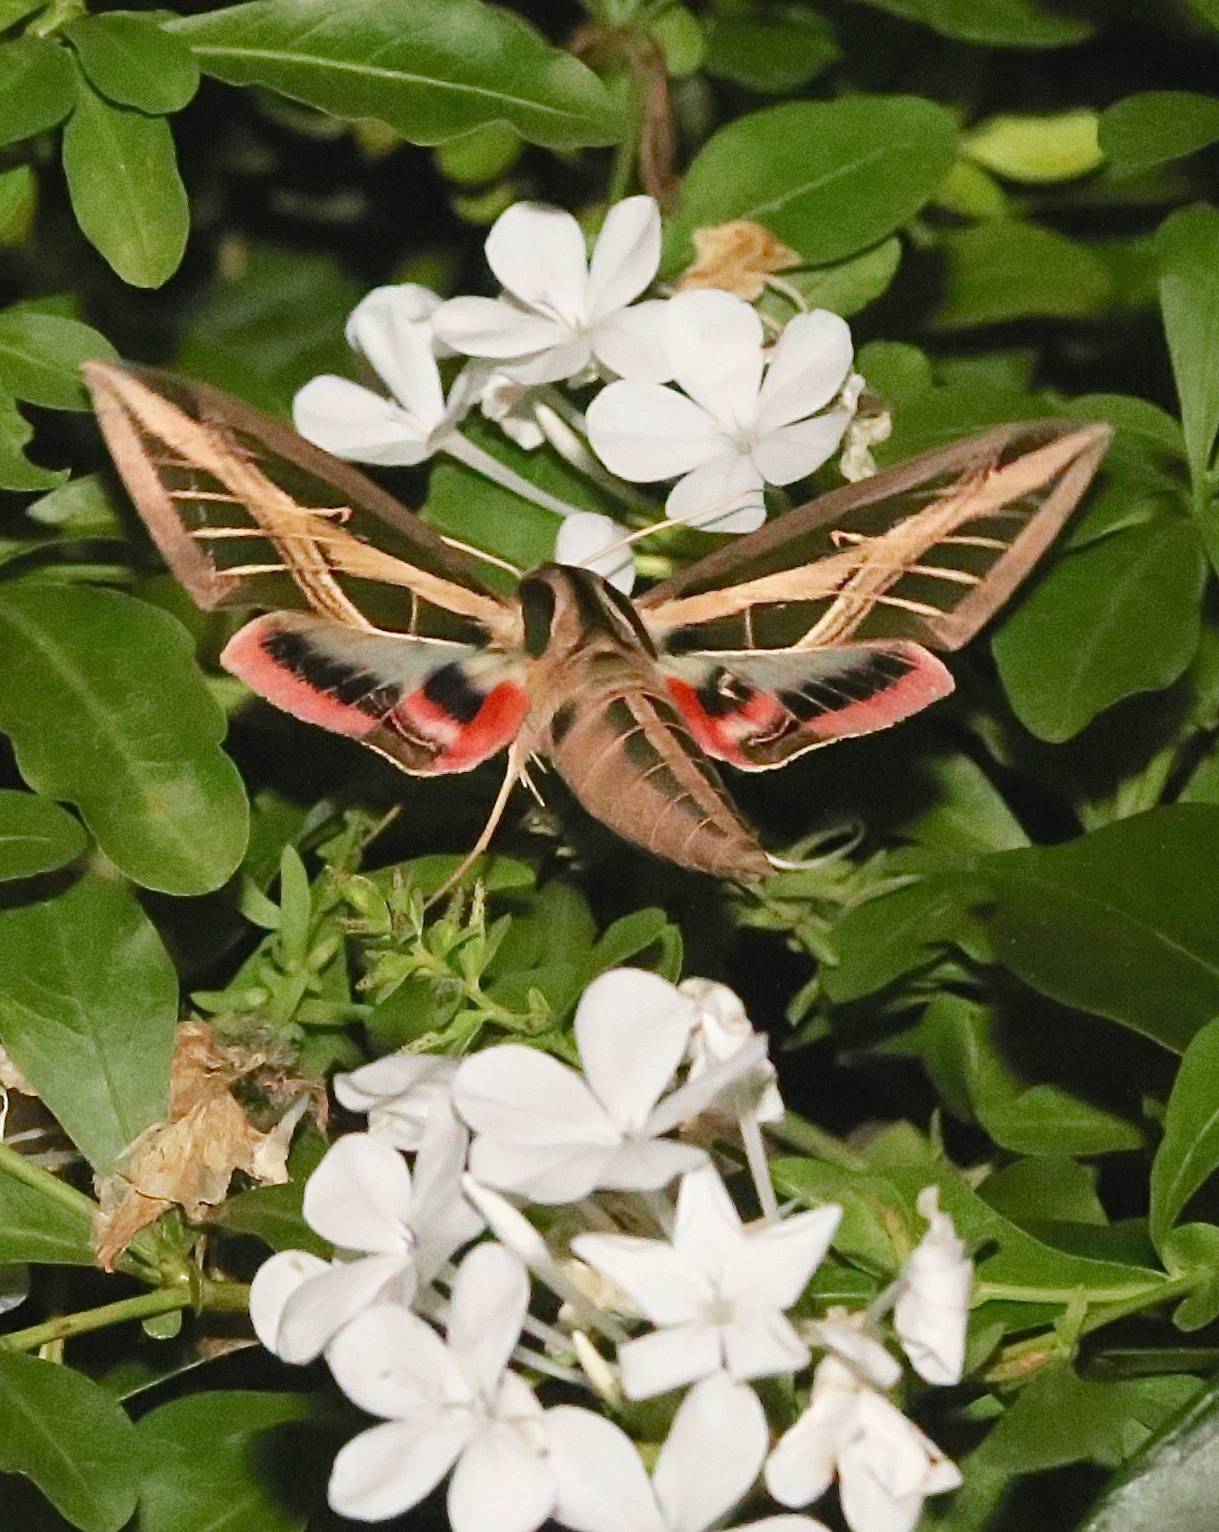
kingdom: Animalia
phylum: Arthropoda
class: Insecta
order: Lepidoptera
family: Sphingidae
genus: Eumorpha
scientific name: Eumorpha fasciatus
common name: Banded sphinx
